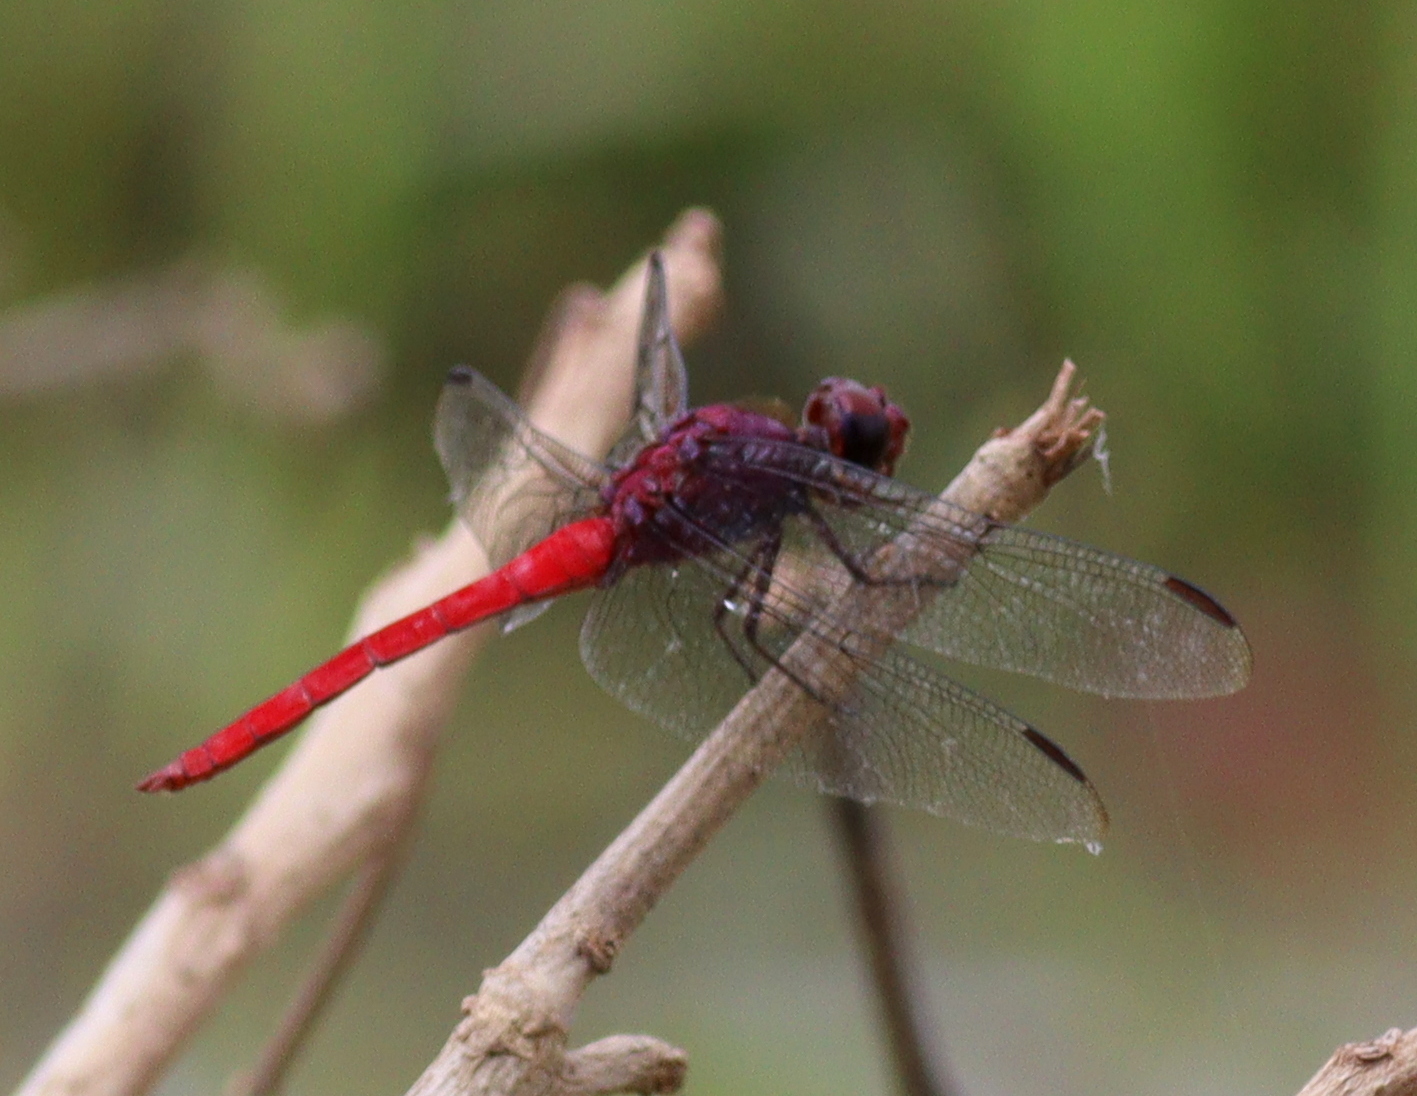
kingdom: Animalia
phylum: Arthropoda
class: Insecta
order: Odonata
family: Libellulidae
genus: Orthemis
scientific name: Orthemis schmidti
